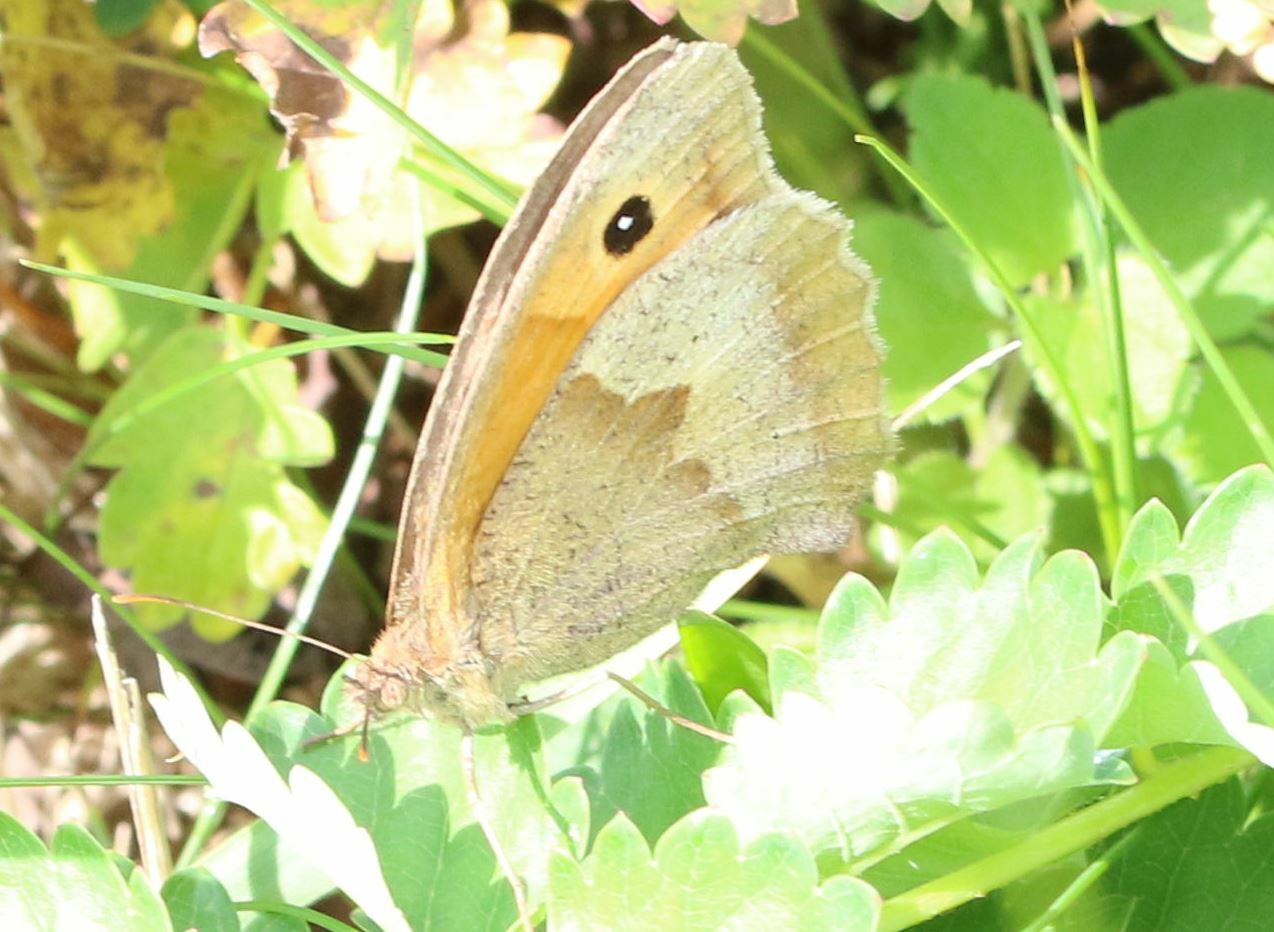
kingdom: Animalia
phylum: Arthropoda
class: Insecta
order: Lepidoptera
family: Nymphalidae
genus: Maniola
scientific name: Maniola jurtina
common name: Meadow brown
